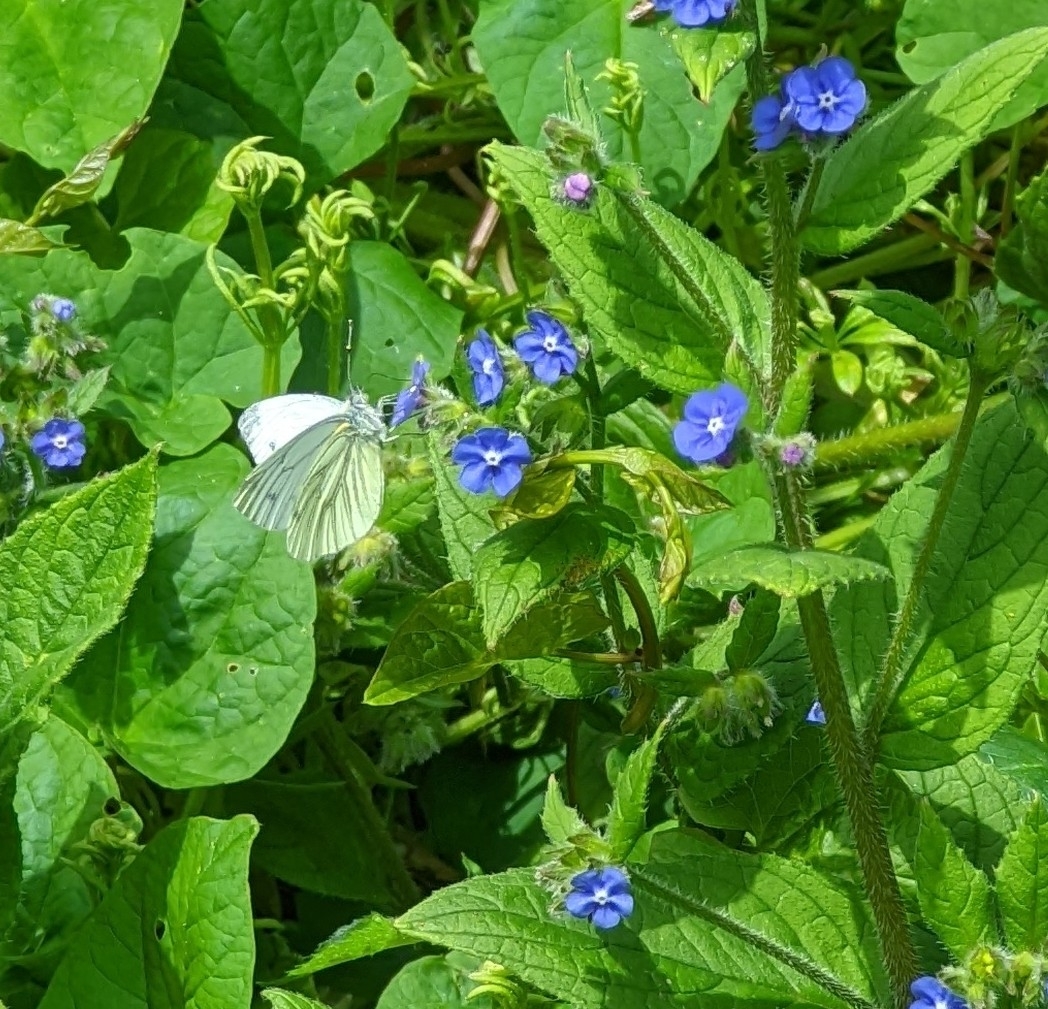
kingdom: Animalia
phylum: Arthropoda
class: Insecta
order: Lepidoptera
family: Pieridae
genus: Pieris
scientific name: Pieris napi
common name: Green-veined white
